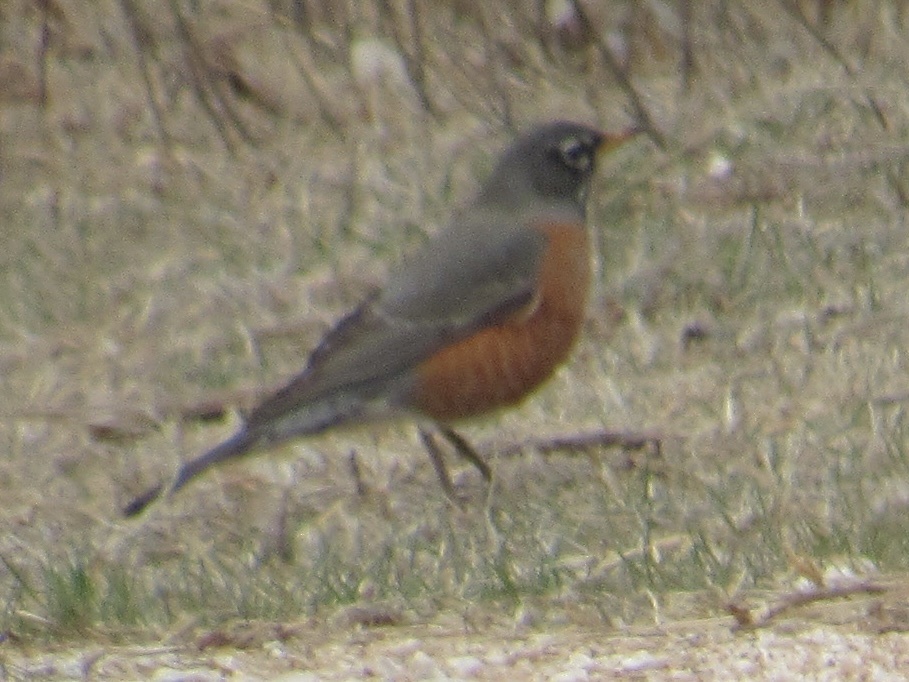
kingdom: Animalia
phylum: Chordata
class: Aves
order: Passeriformes
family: Turdidae
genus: Turdus
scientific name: Turdus migratorius
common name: American robin
